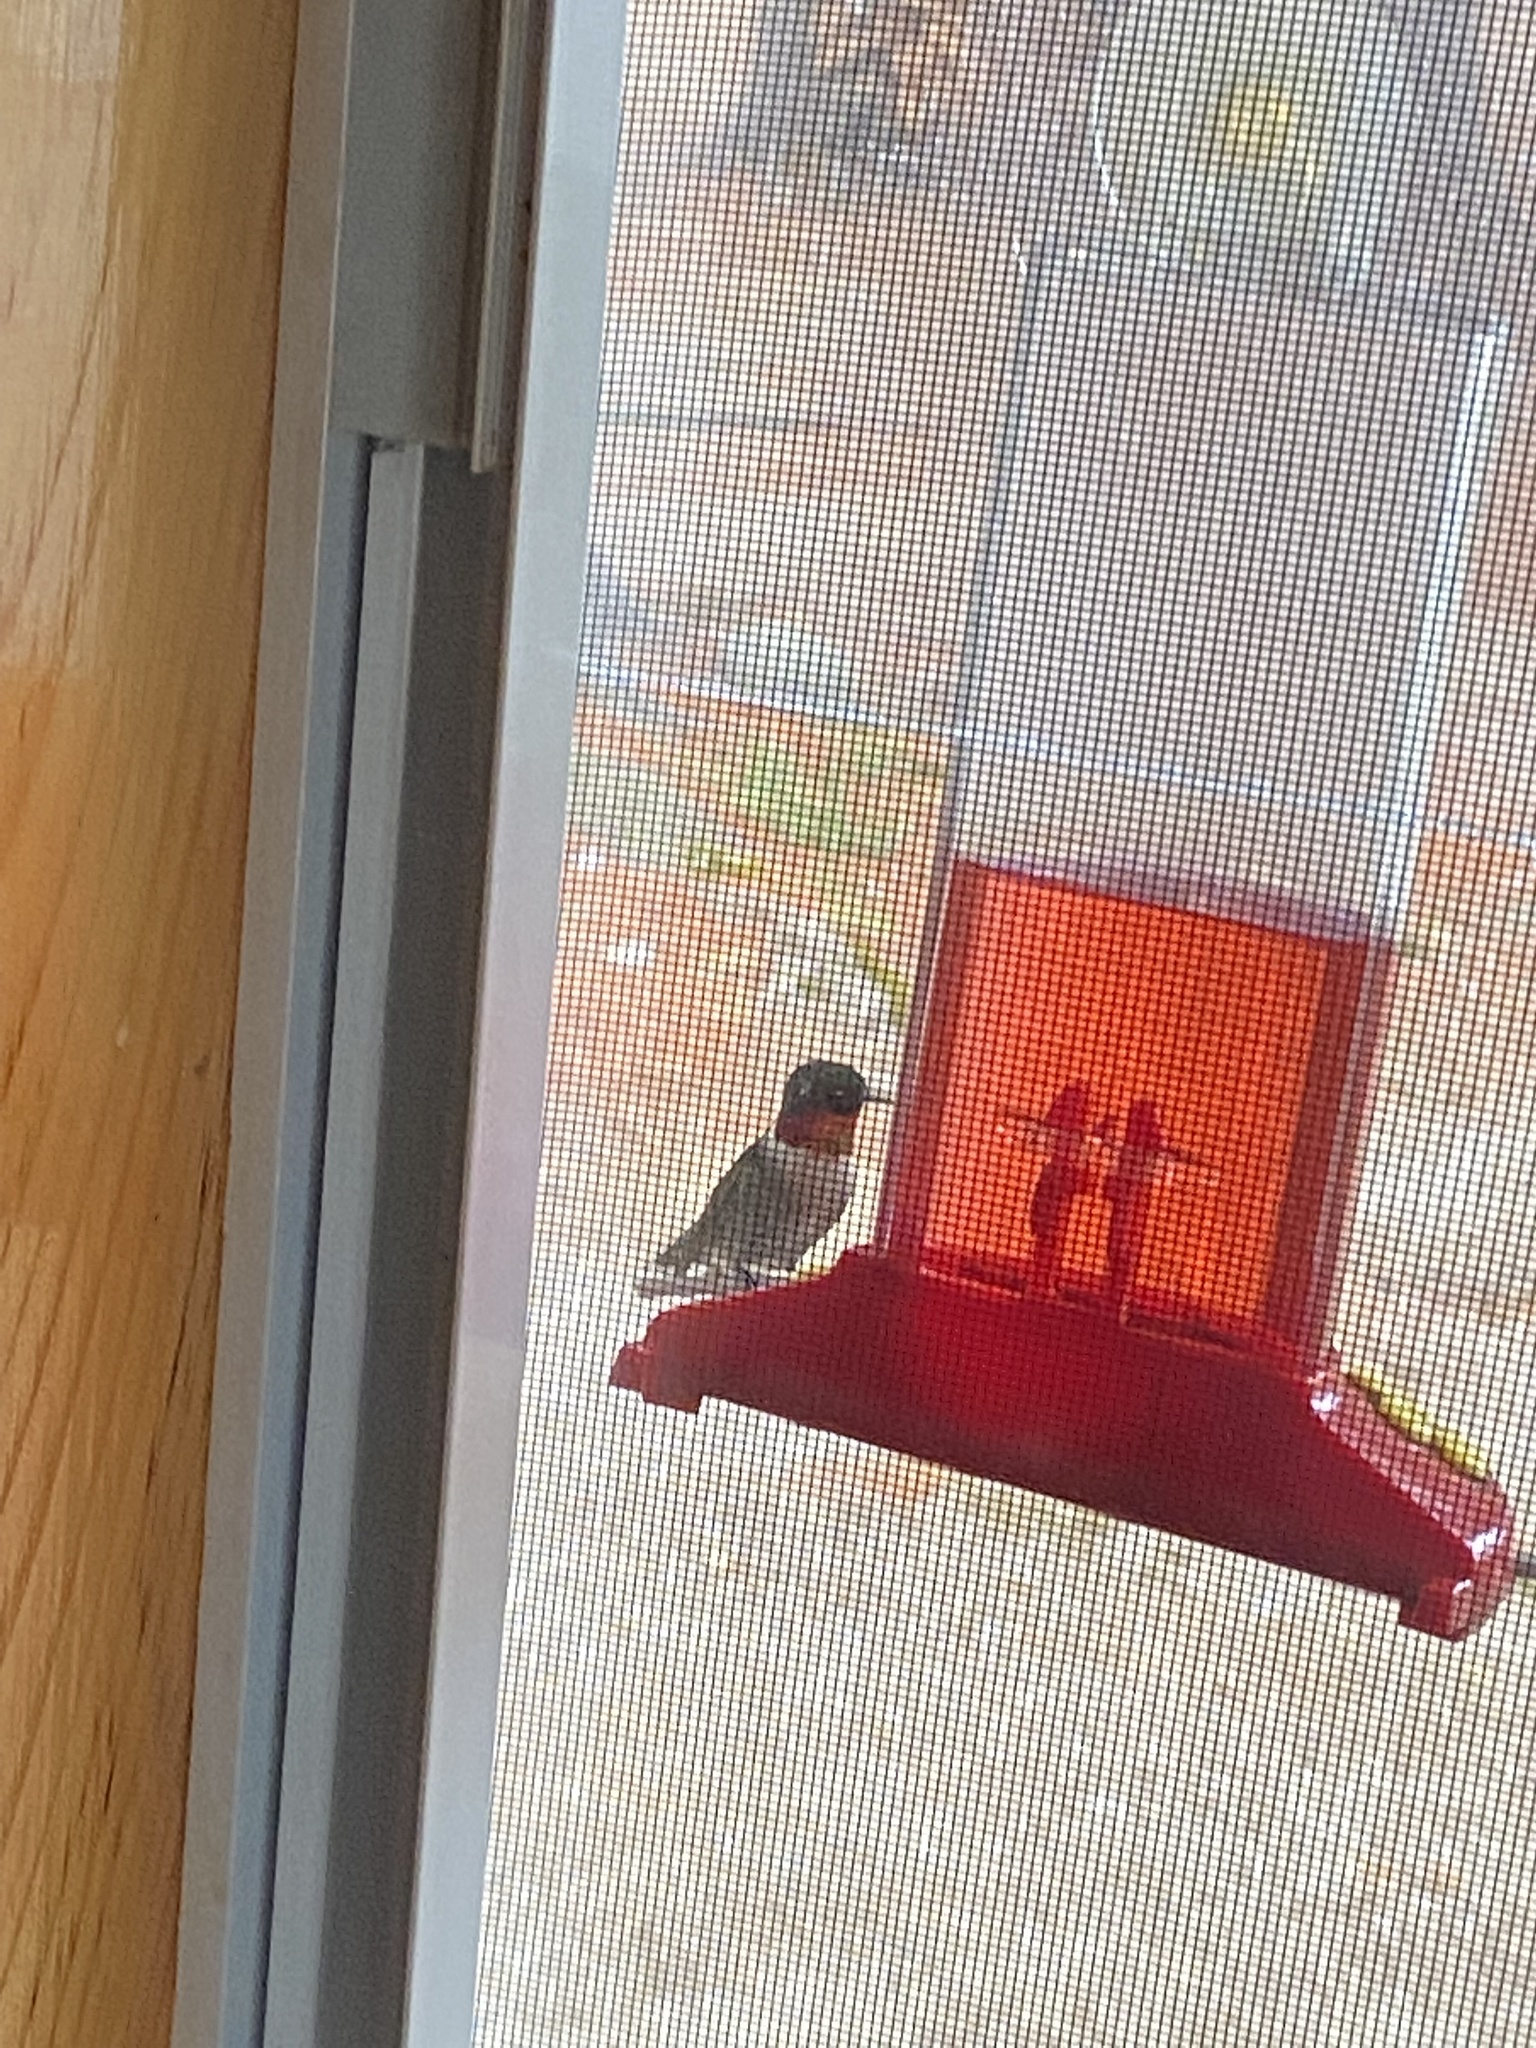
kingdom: Animalia
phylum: Chordata
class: Aves
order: Apodiformes
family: Trochilidae
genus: Archilochus
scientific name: Archilochus colubris
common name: Ruby-throated hummingbird
